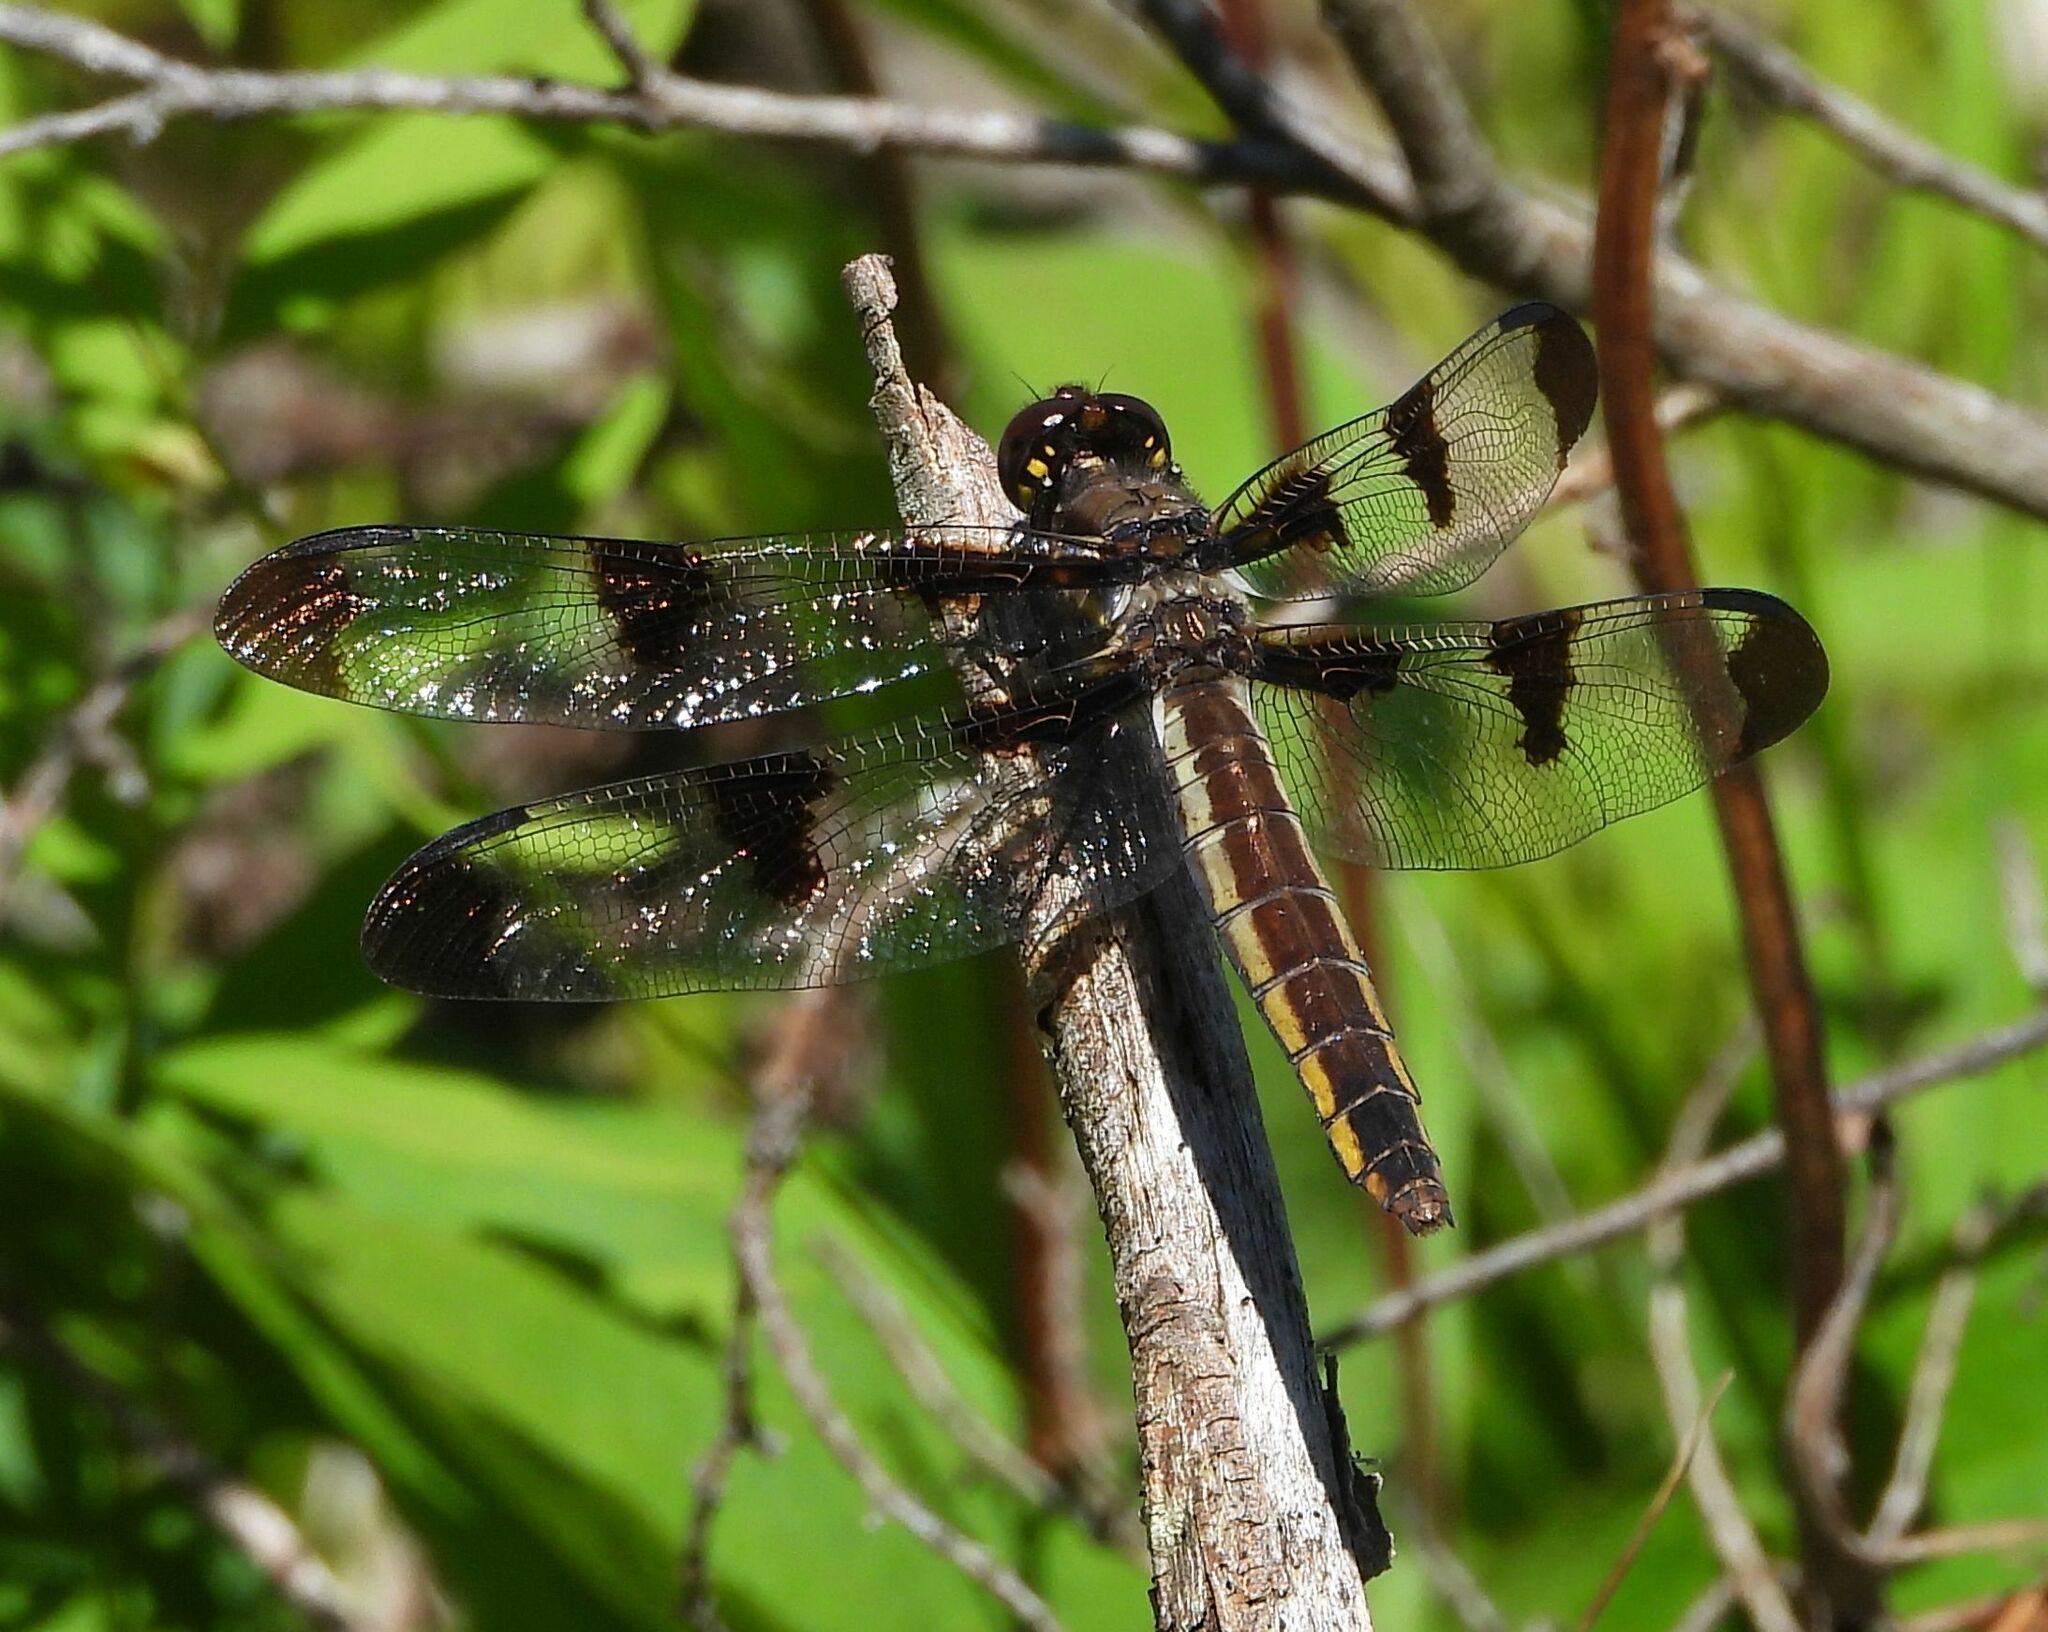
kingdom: Animalia
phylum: Arthropoda
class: Insecta
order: Odonata
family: Libellulidae
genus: Libellula
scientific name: Libellula pulchella
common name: Twelve-spotted skimmer
